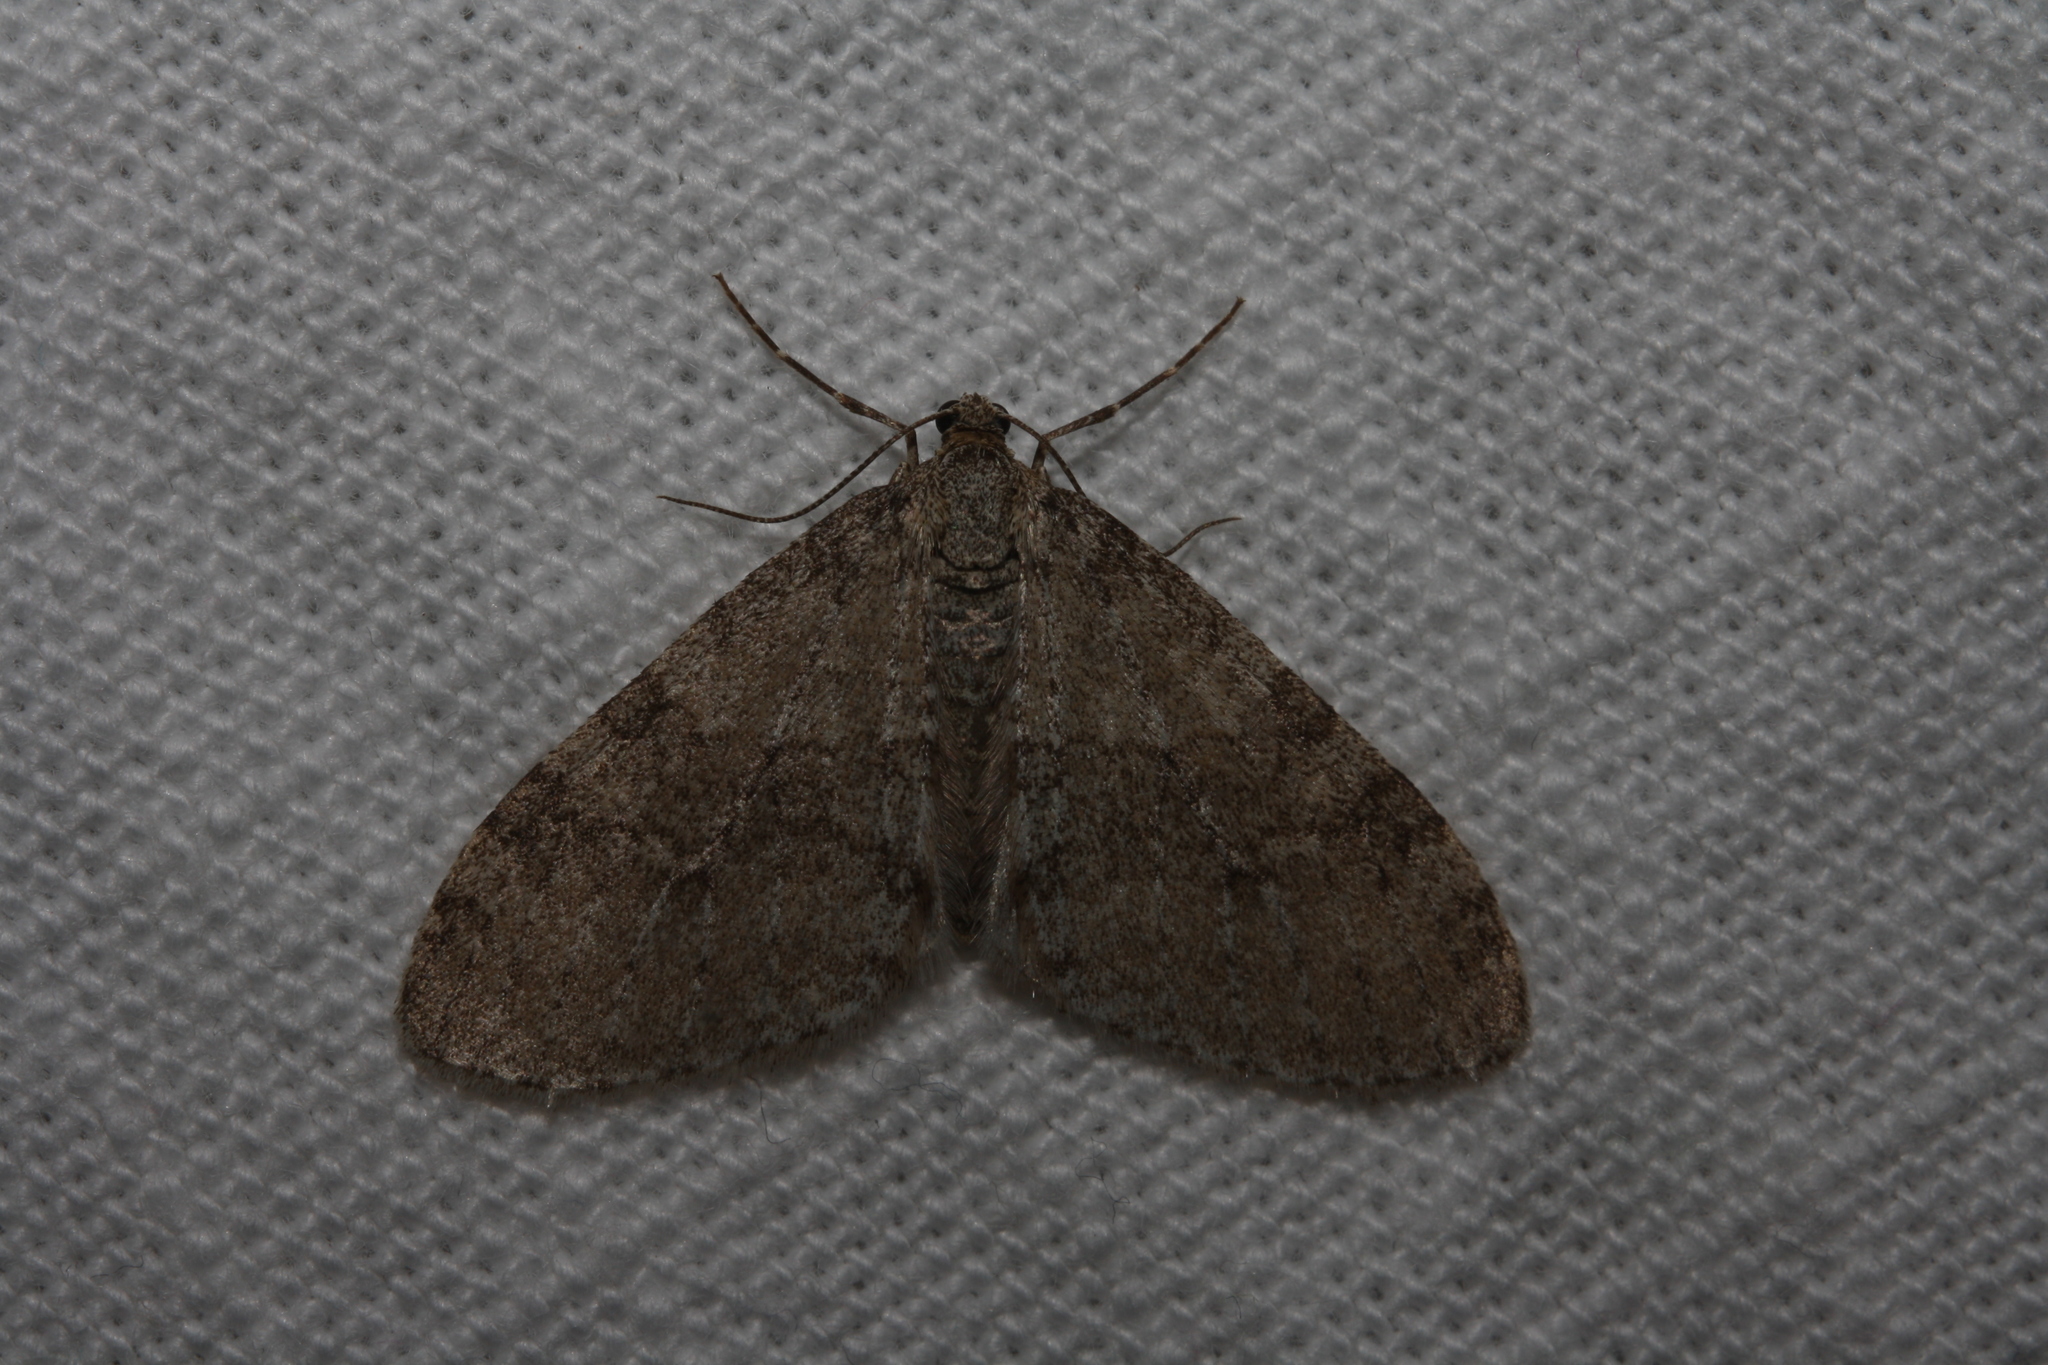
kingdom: Animalia
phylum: Arthropoda
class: Insecta
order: Lepidoptera
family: Geometridae
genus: Trichopteryx
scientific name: Trichopteryx carpinata
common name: Early tooth-striped
